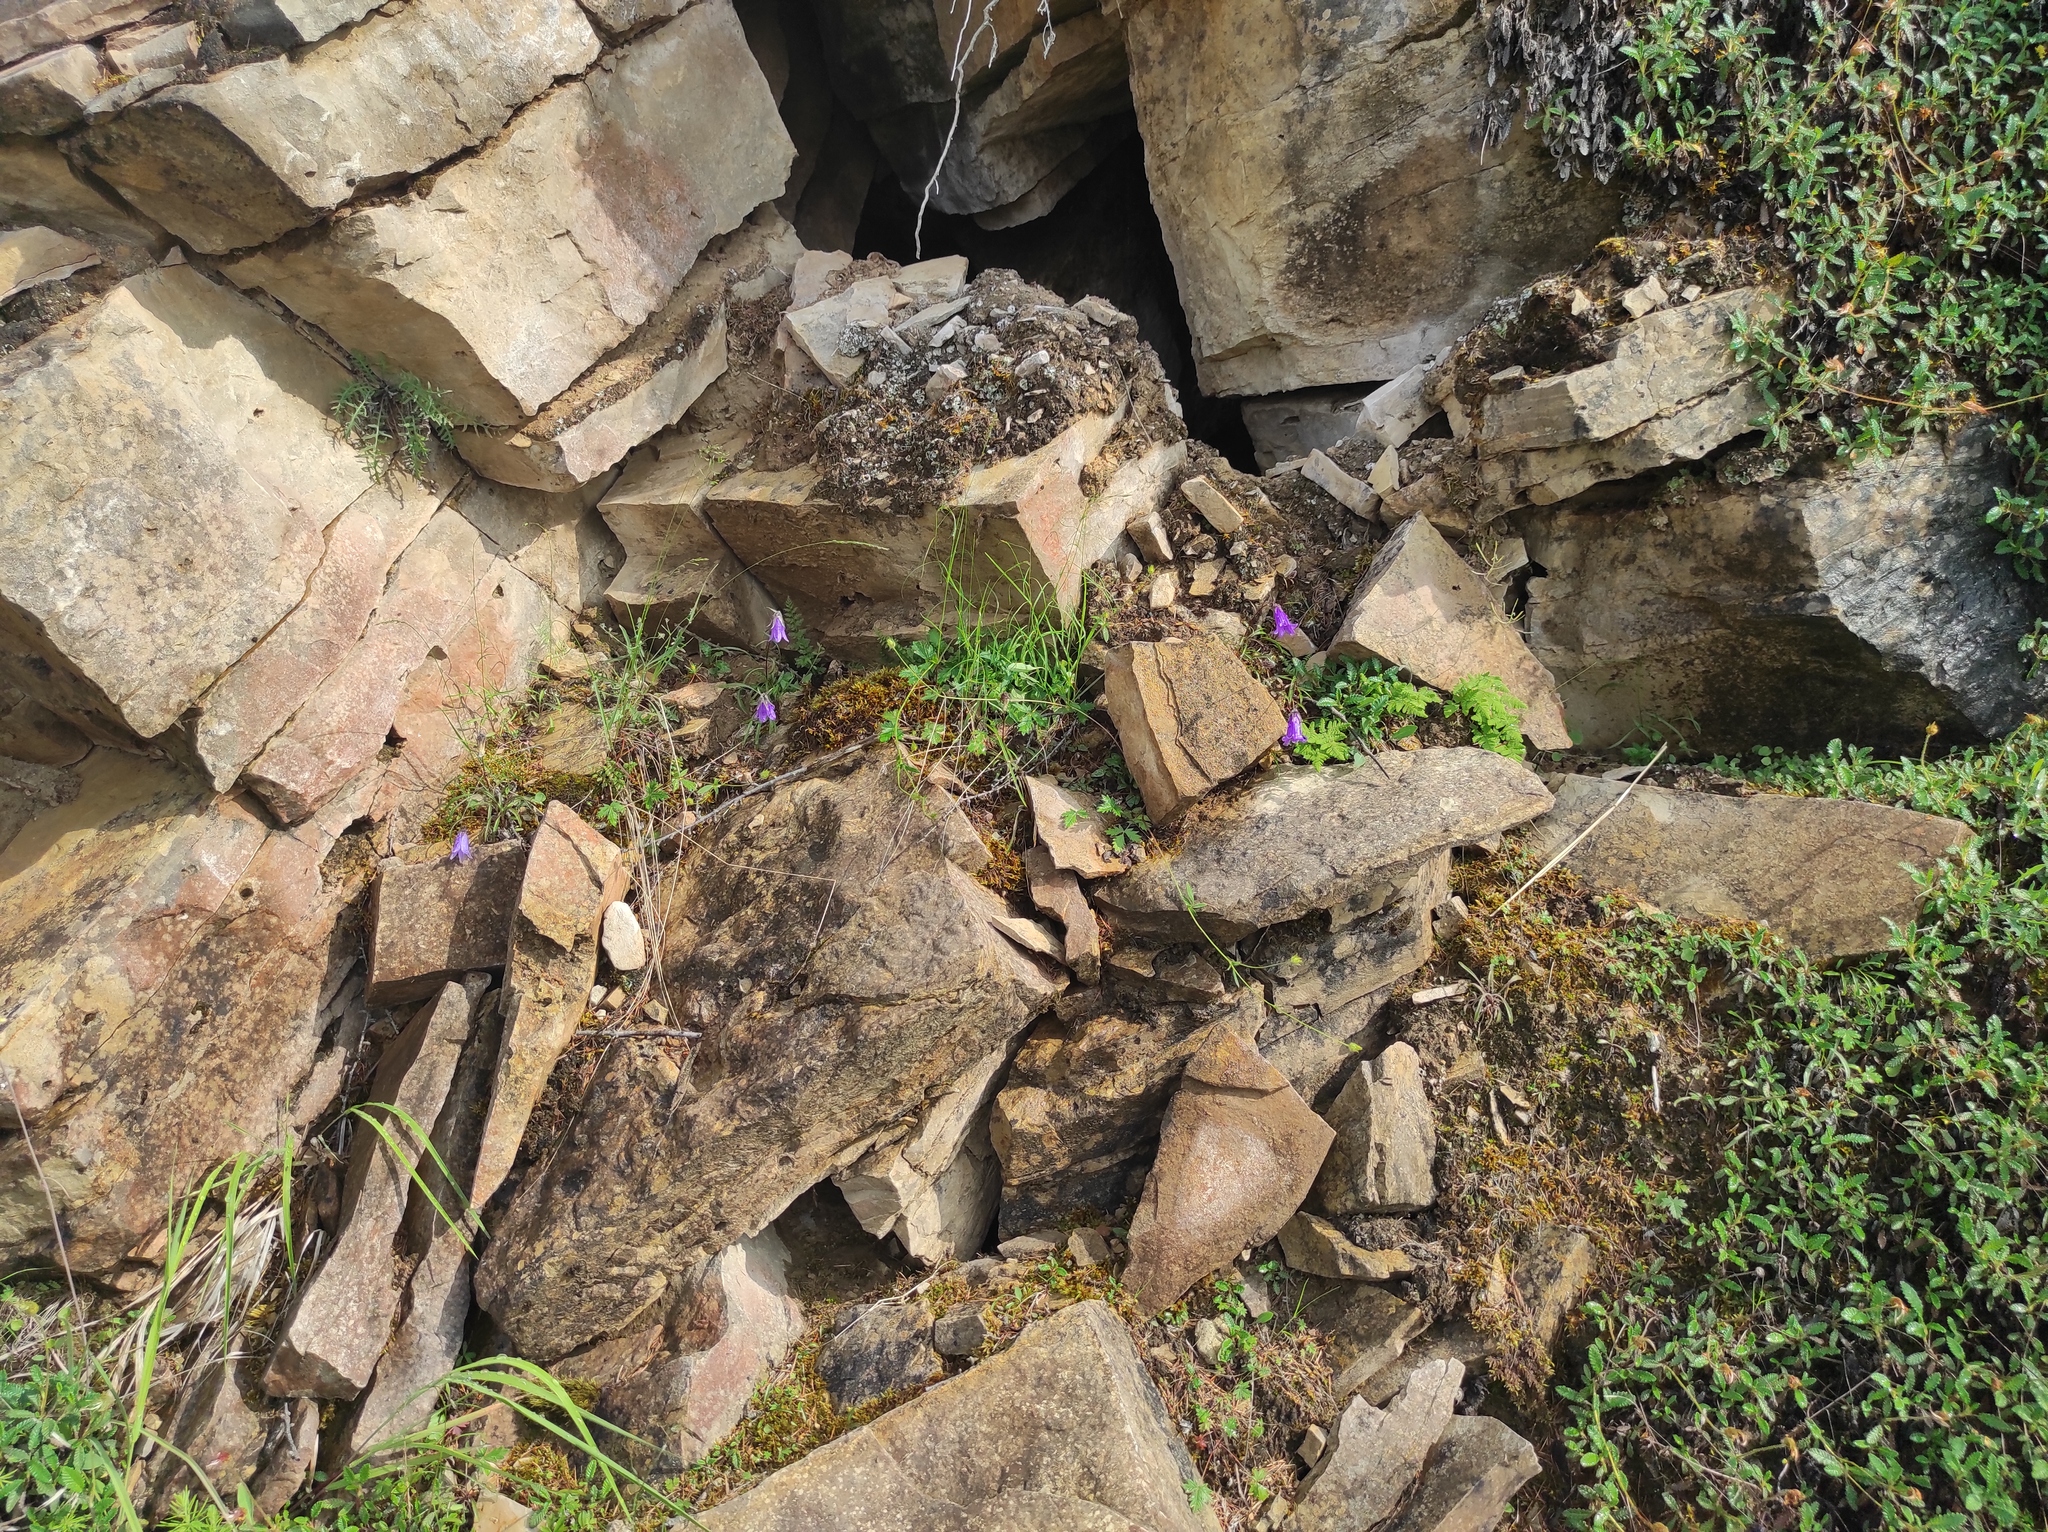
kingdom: Plantae
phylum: Tracheophyta
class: Magnoliopsida
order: Asterales
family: Campanulaceae
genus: Campanula
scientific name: Campanula rotundifolia
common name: Harebell
